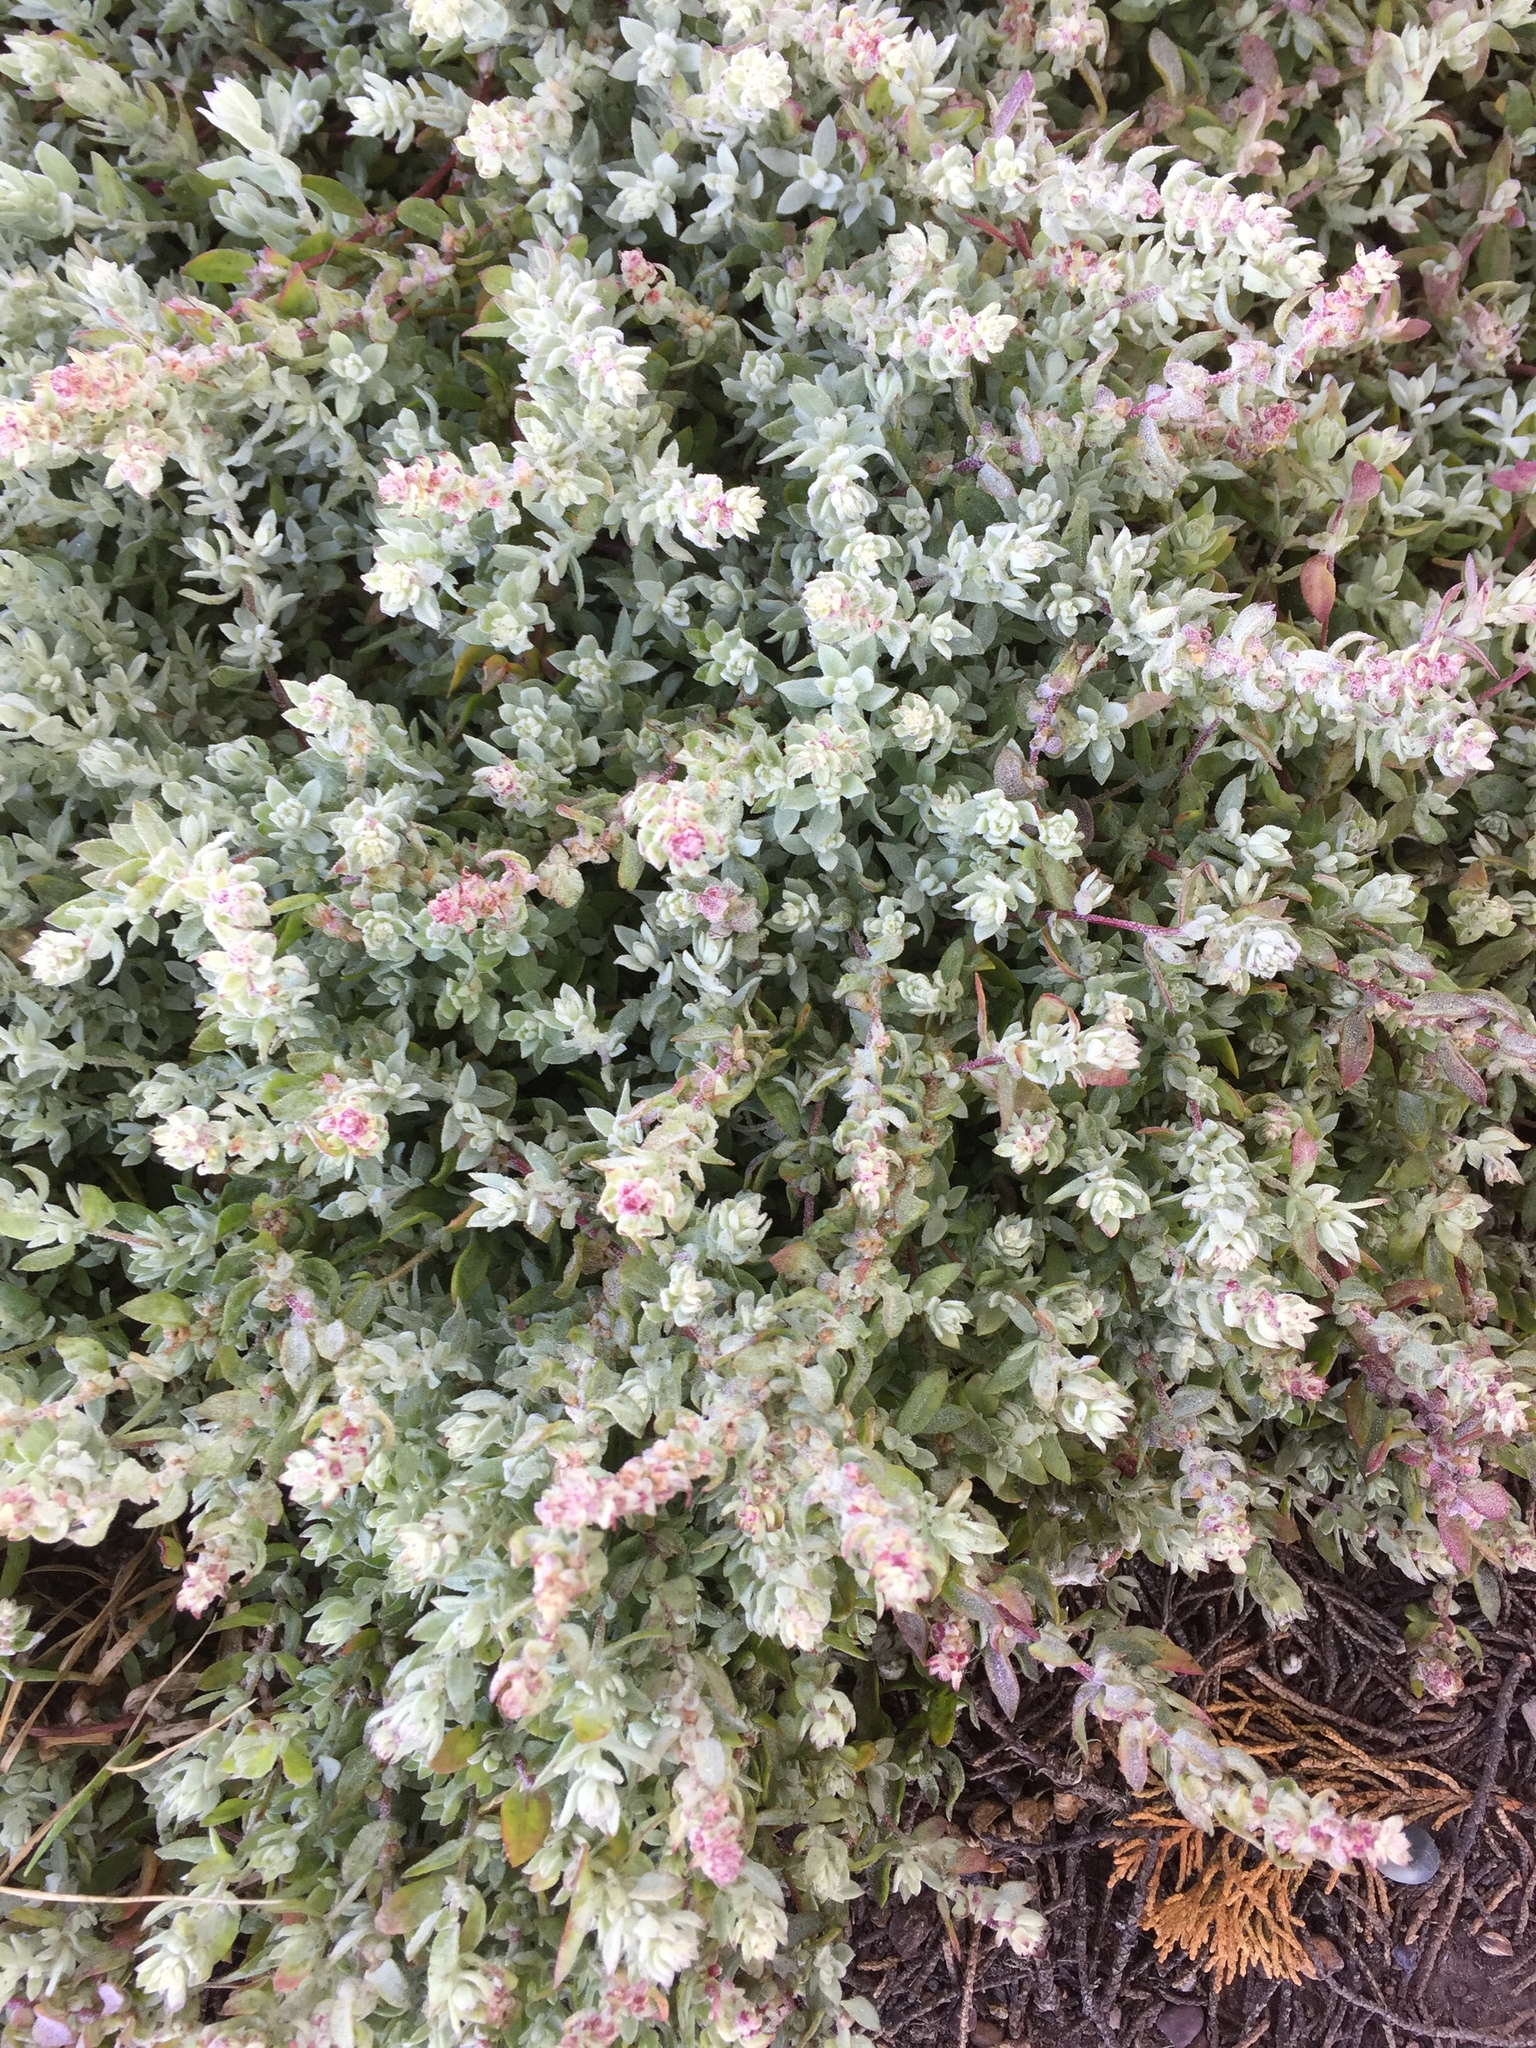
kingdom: Plantae
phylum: Tracheophyta
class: Magnoliopsida
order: Caryophyllales
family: Amaranthaceae
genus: Extriplex
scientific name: Extriplex californica
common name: California saltbush
